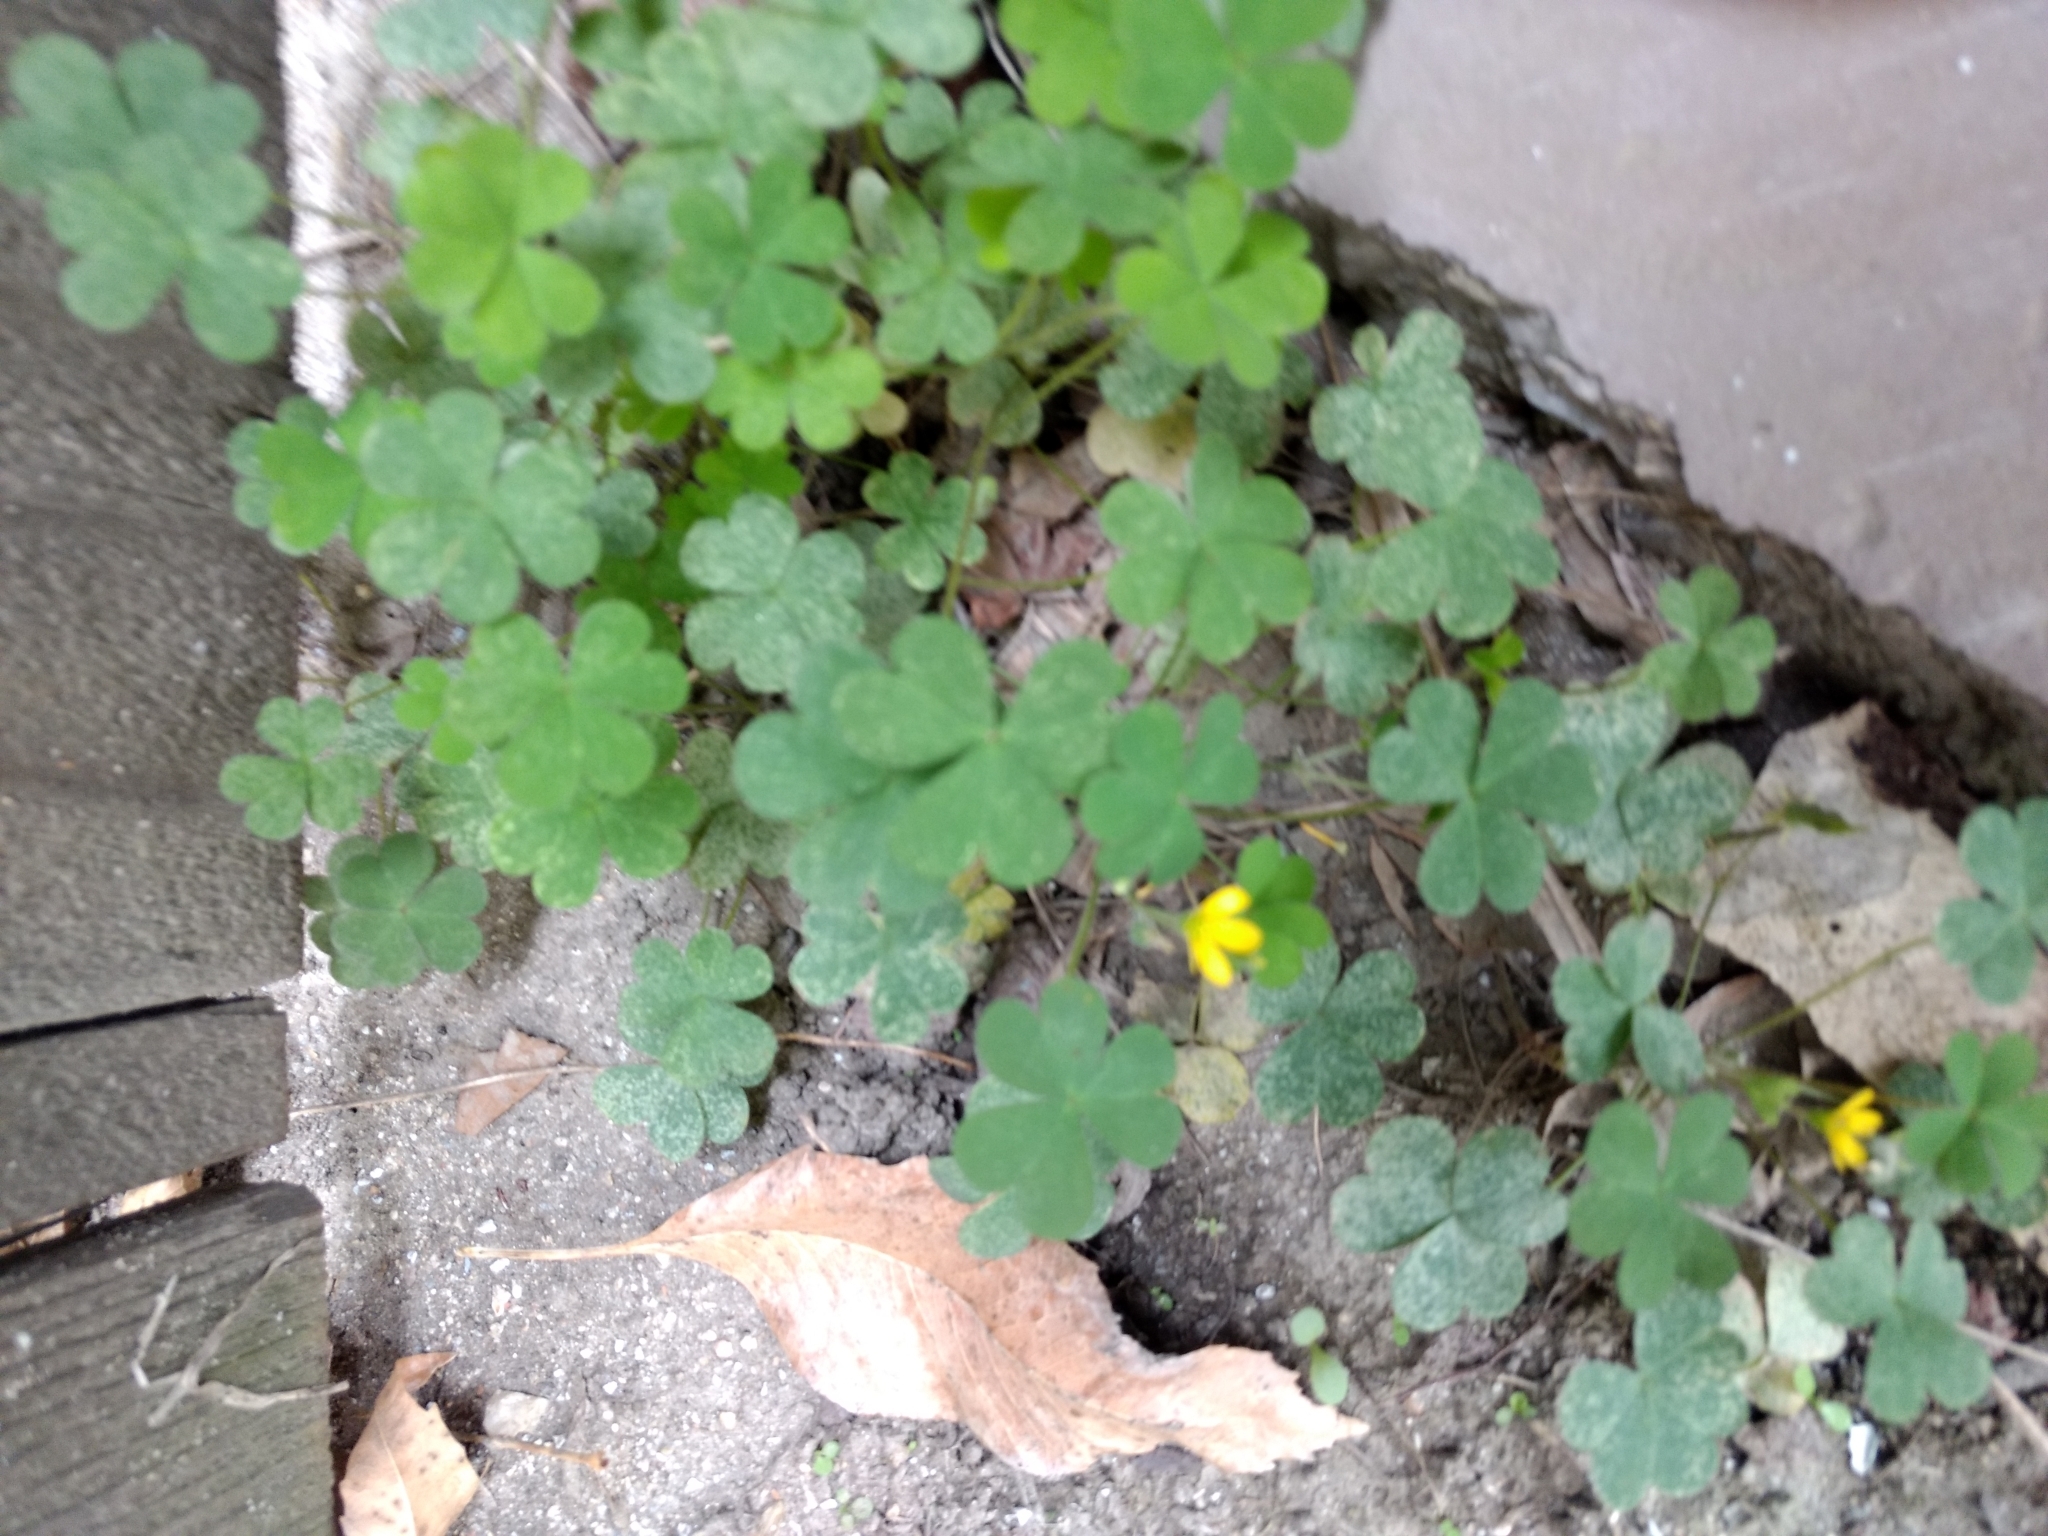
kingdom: Plantae
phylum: Tracheophyta
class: Magnoliopsida
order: Oxalidales
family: Oxalidaceae
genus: Oxalis
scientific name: Oxalis corniculata
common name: Procumbent yellow-sorrel
